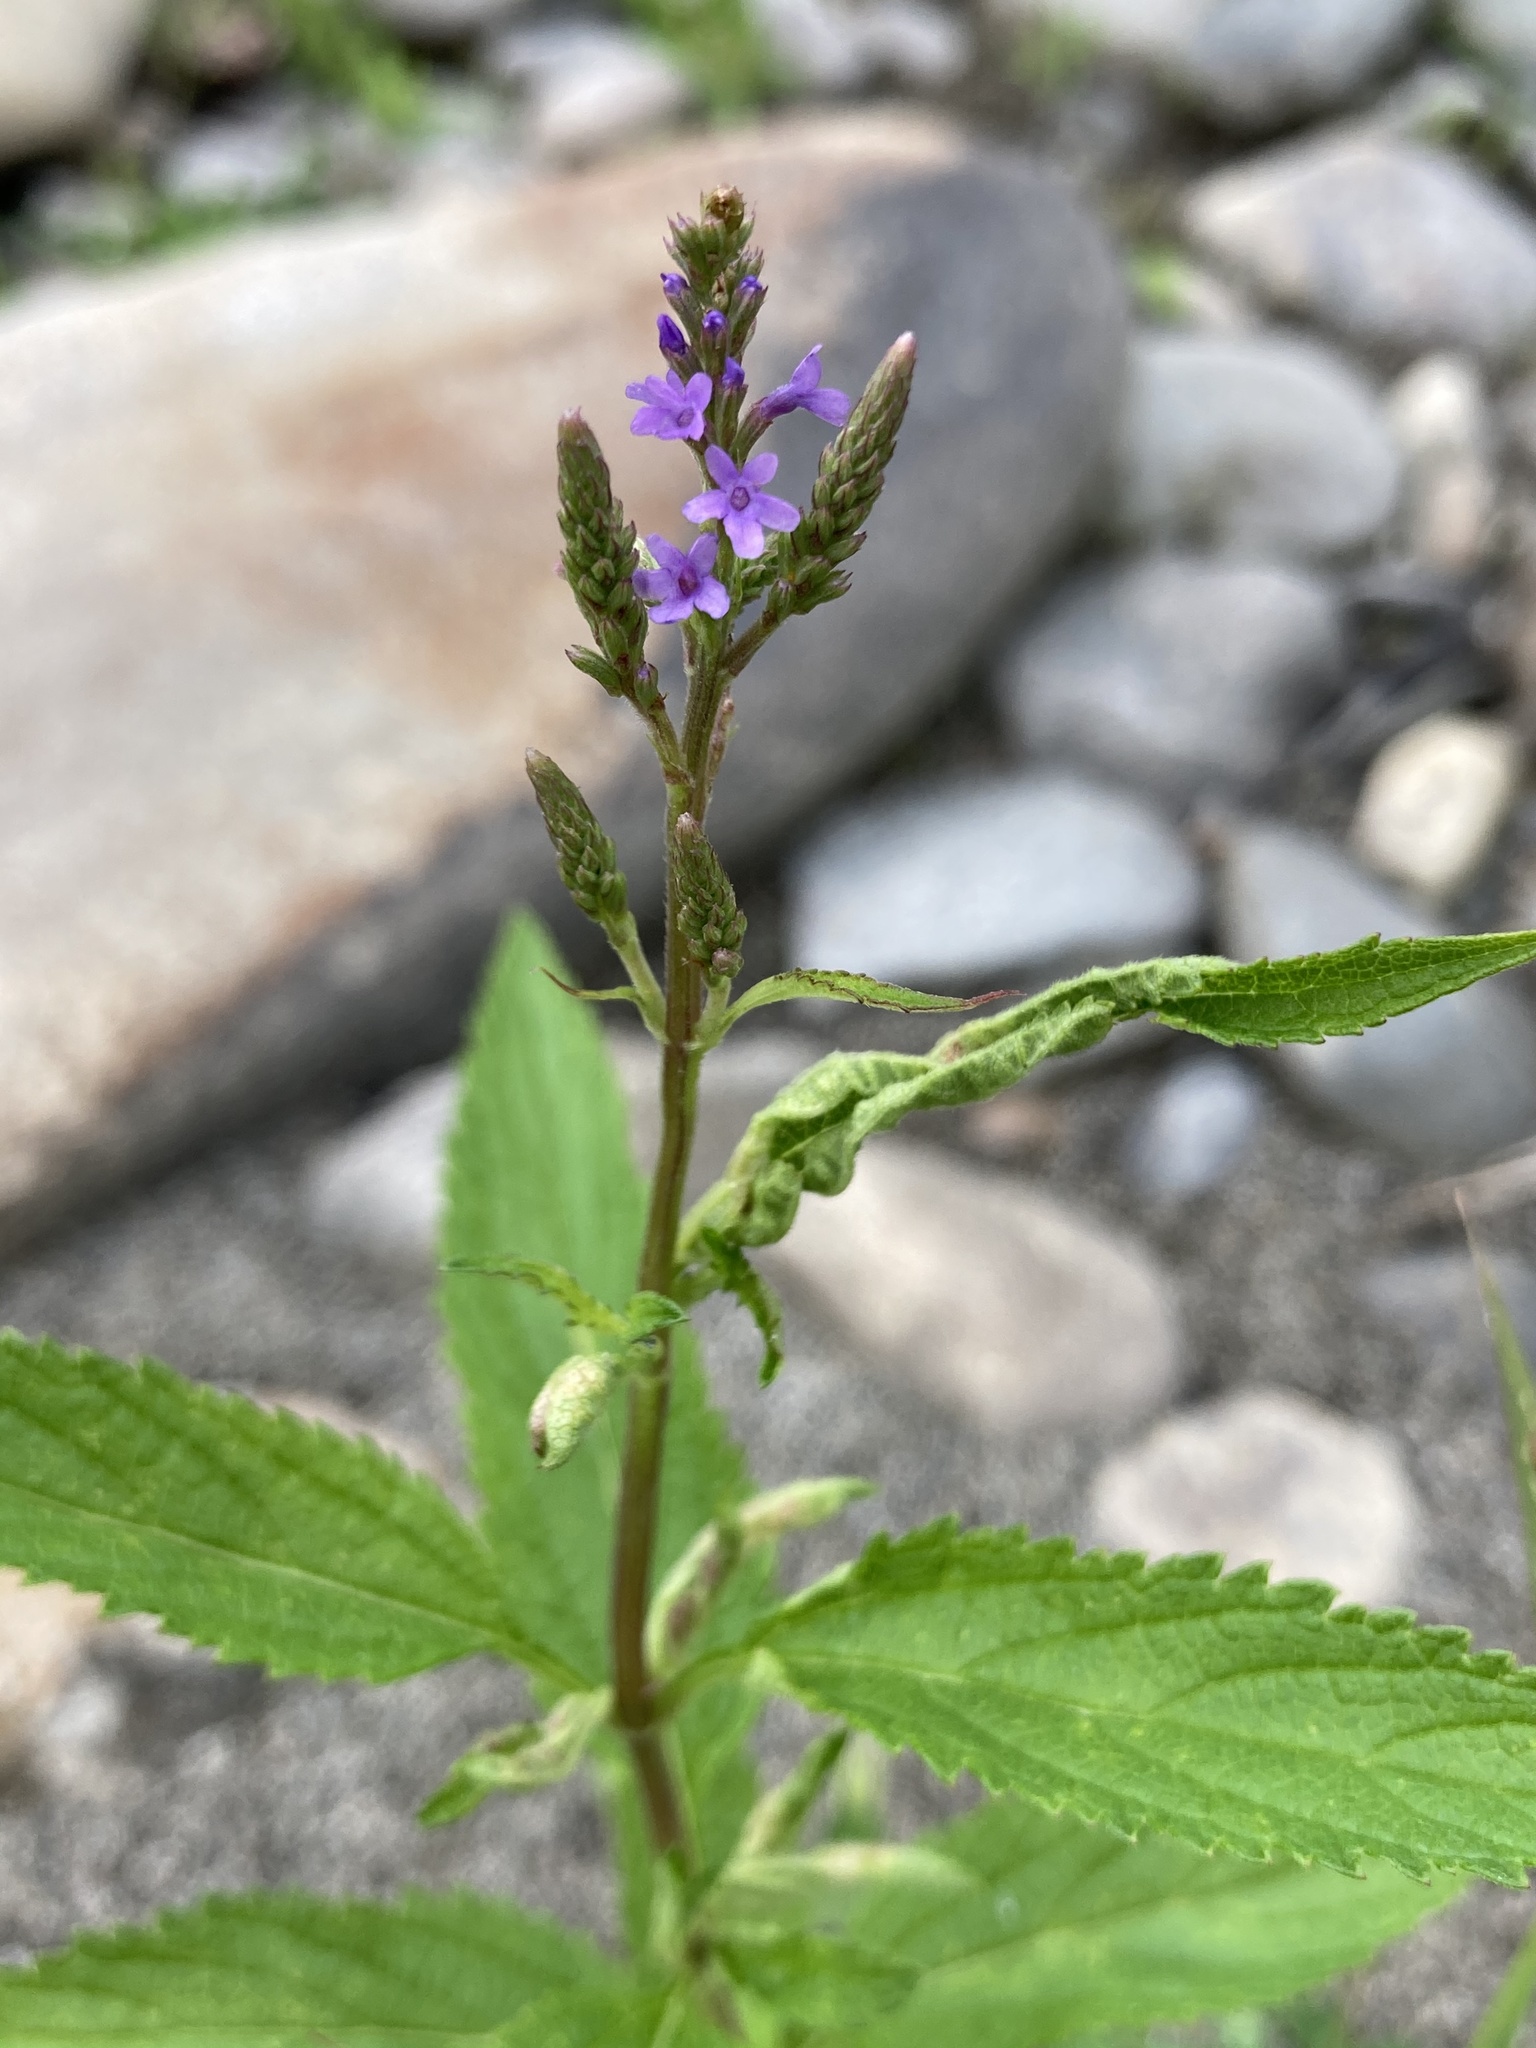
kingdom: Plantae
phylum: Tracheophyta
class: Magnoliopsida
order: Lamiales
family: Verbenaceae
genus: Verbena
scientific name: Verbena hastata
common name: American blue vervain
